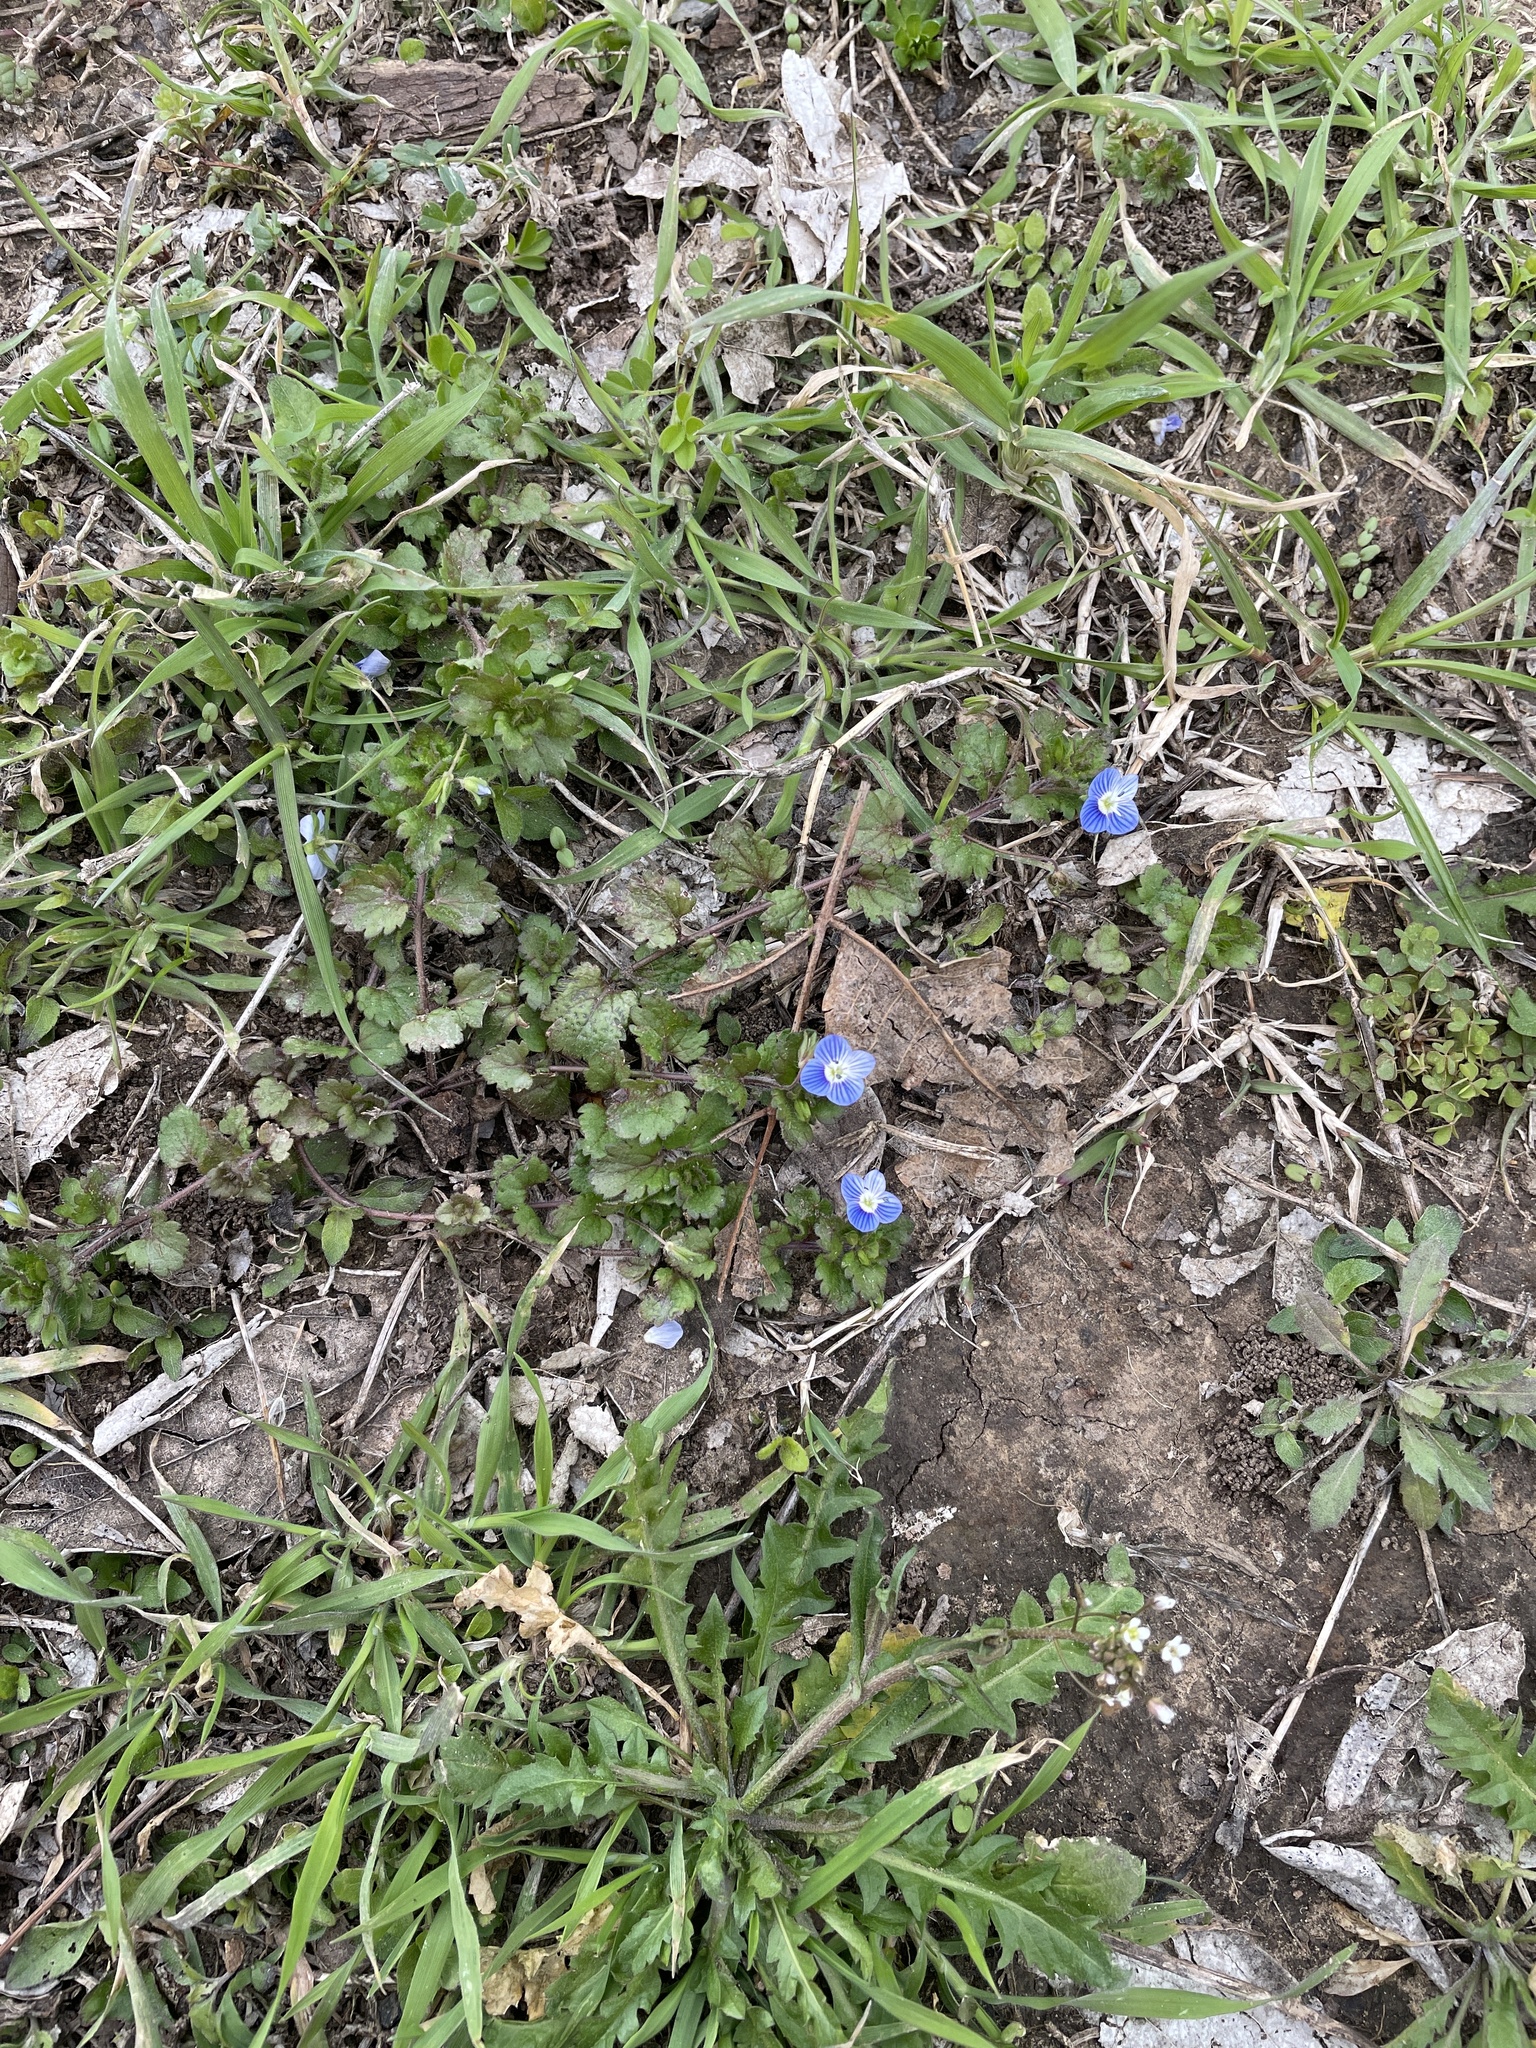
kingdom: Plantae
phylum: Tracheophyta
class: Magnoliopsida
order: Lamiales
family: Plantaginaceae
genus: Veronica
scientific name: Veronica persica
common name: Common field-speedwell
